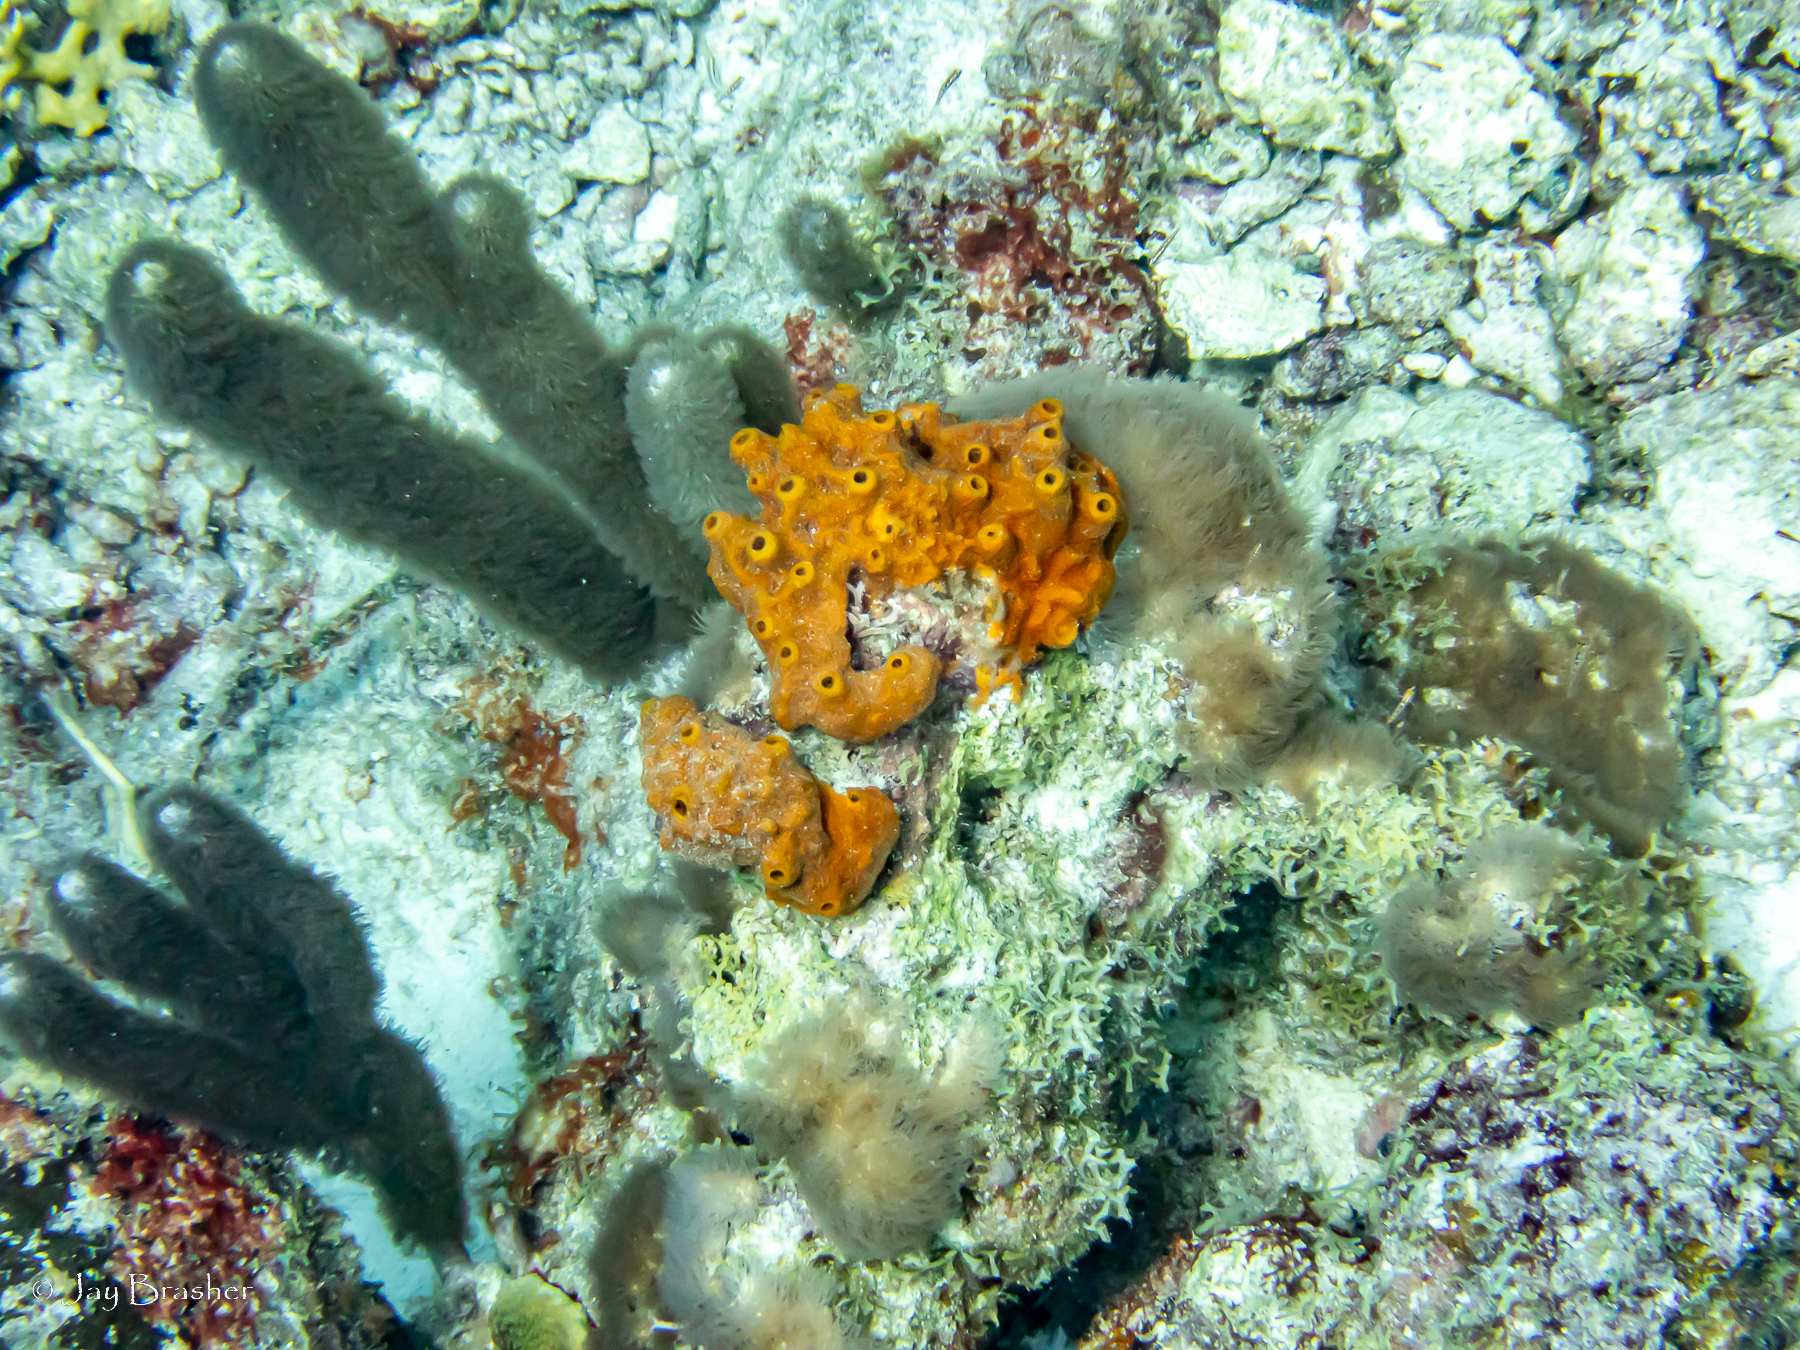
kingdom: Animalia
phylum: Cnidaria
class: Anthozoa
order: Scleralcyonacea
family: Erythropodiidae
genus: Erythropodium
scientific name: Erythropodium caribaeorum
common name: Encrusting gorgonian
